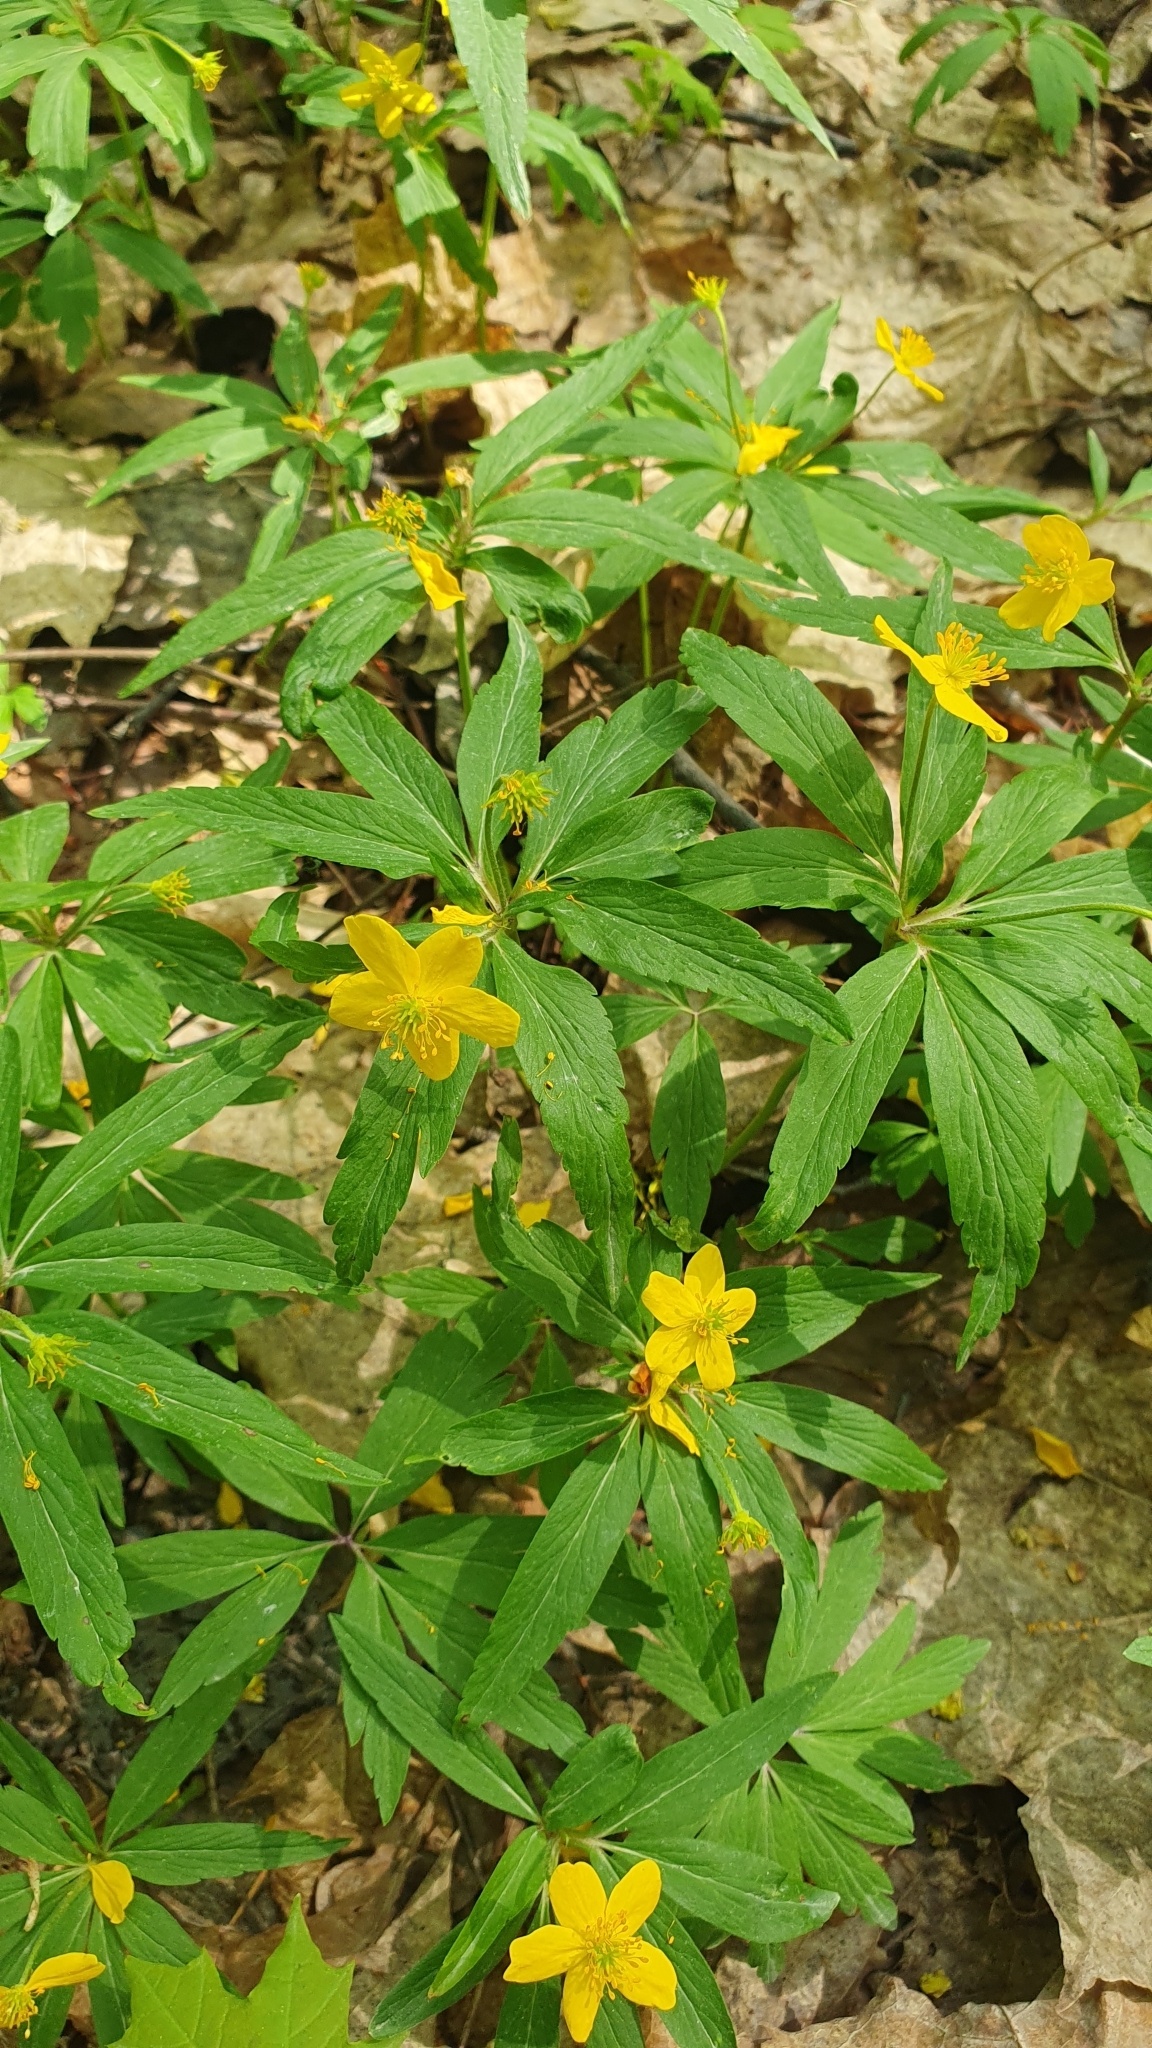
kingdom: Plantae
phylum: Tracheophyta
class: Magnoliopsida
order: Ranunculales
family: Ranunculaceae
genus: Anemone
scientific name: Anemone ranunculoides
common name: Yellow anemone
